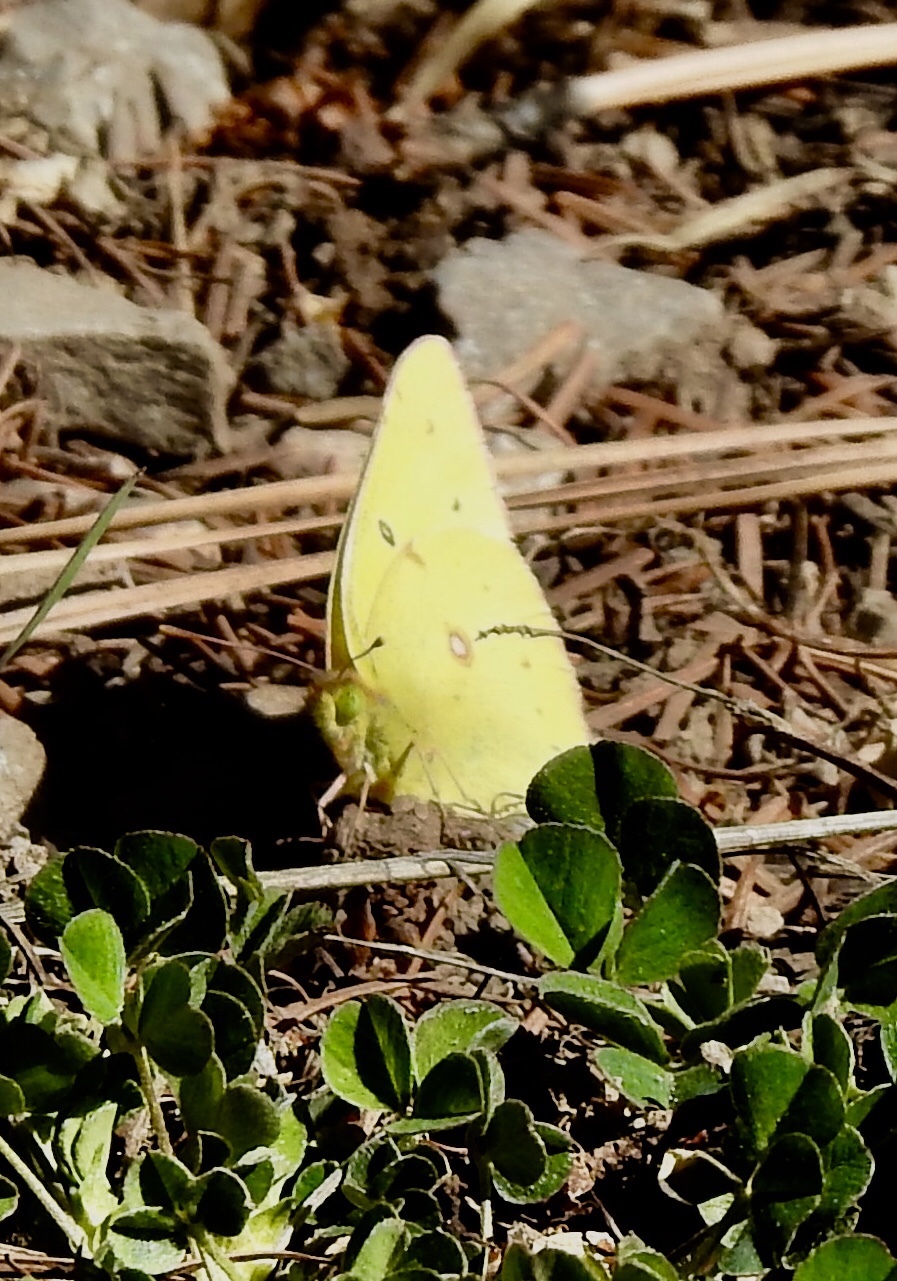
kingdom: Animalia
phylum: Arthropoda
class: Insecta
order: Lepidoptera
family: Pieridae
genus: Colias
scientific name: Colias eurytheme
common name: Alfalfa butterfly
